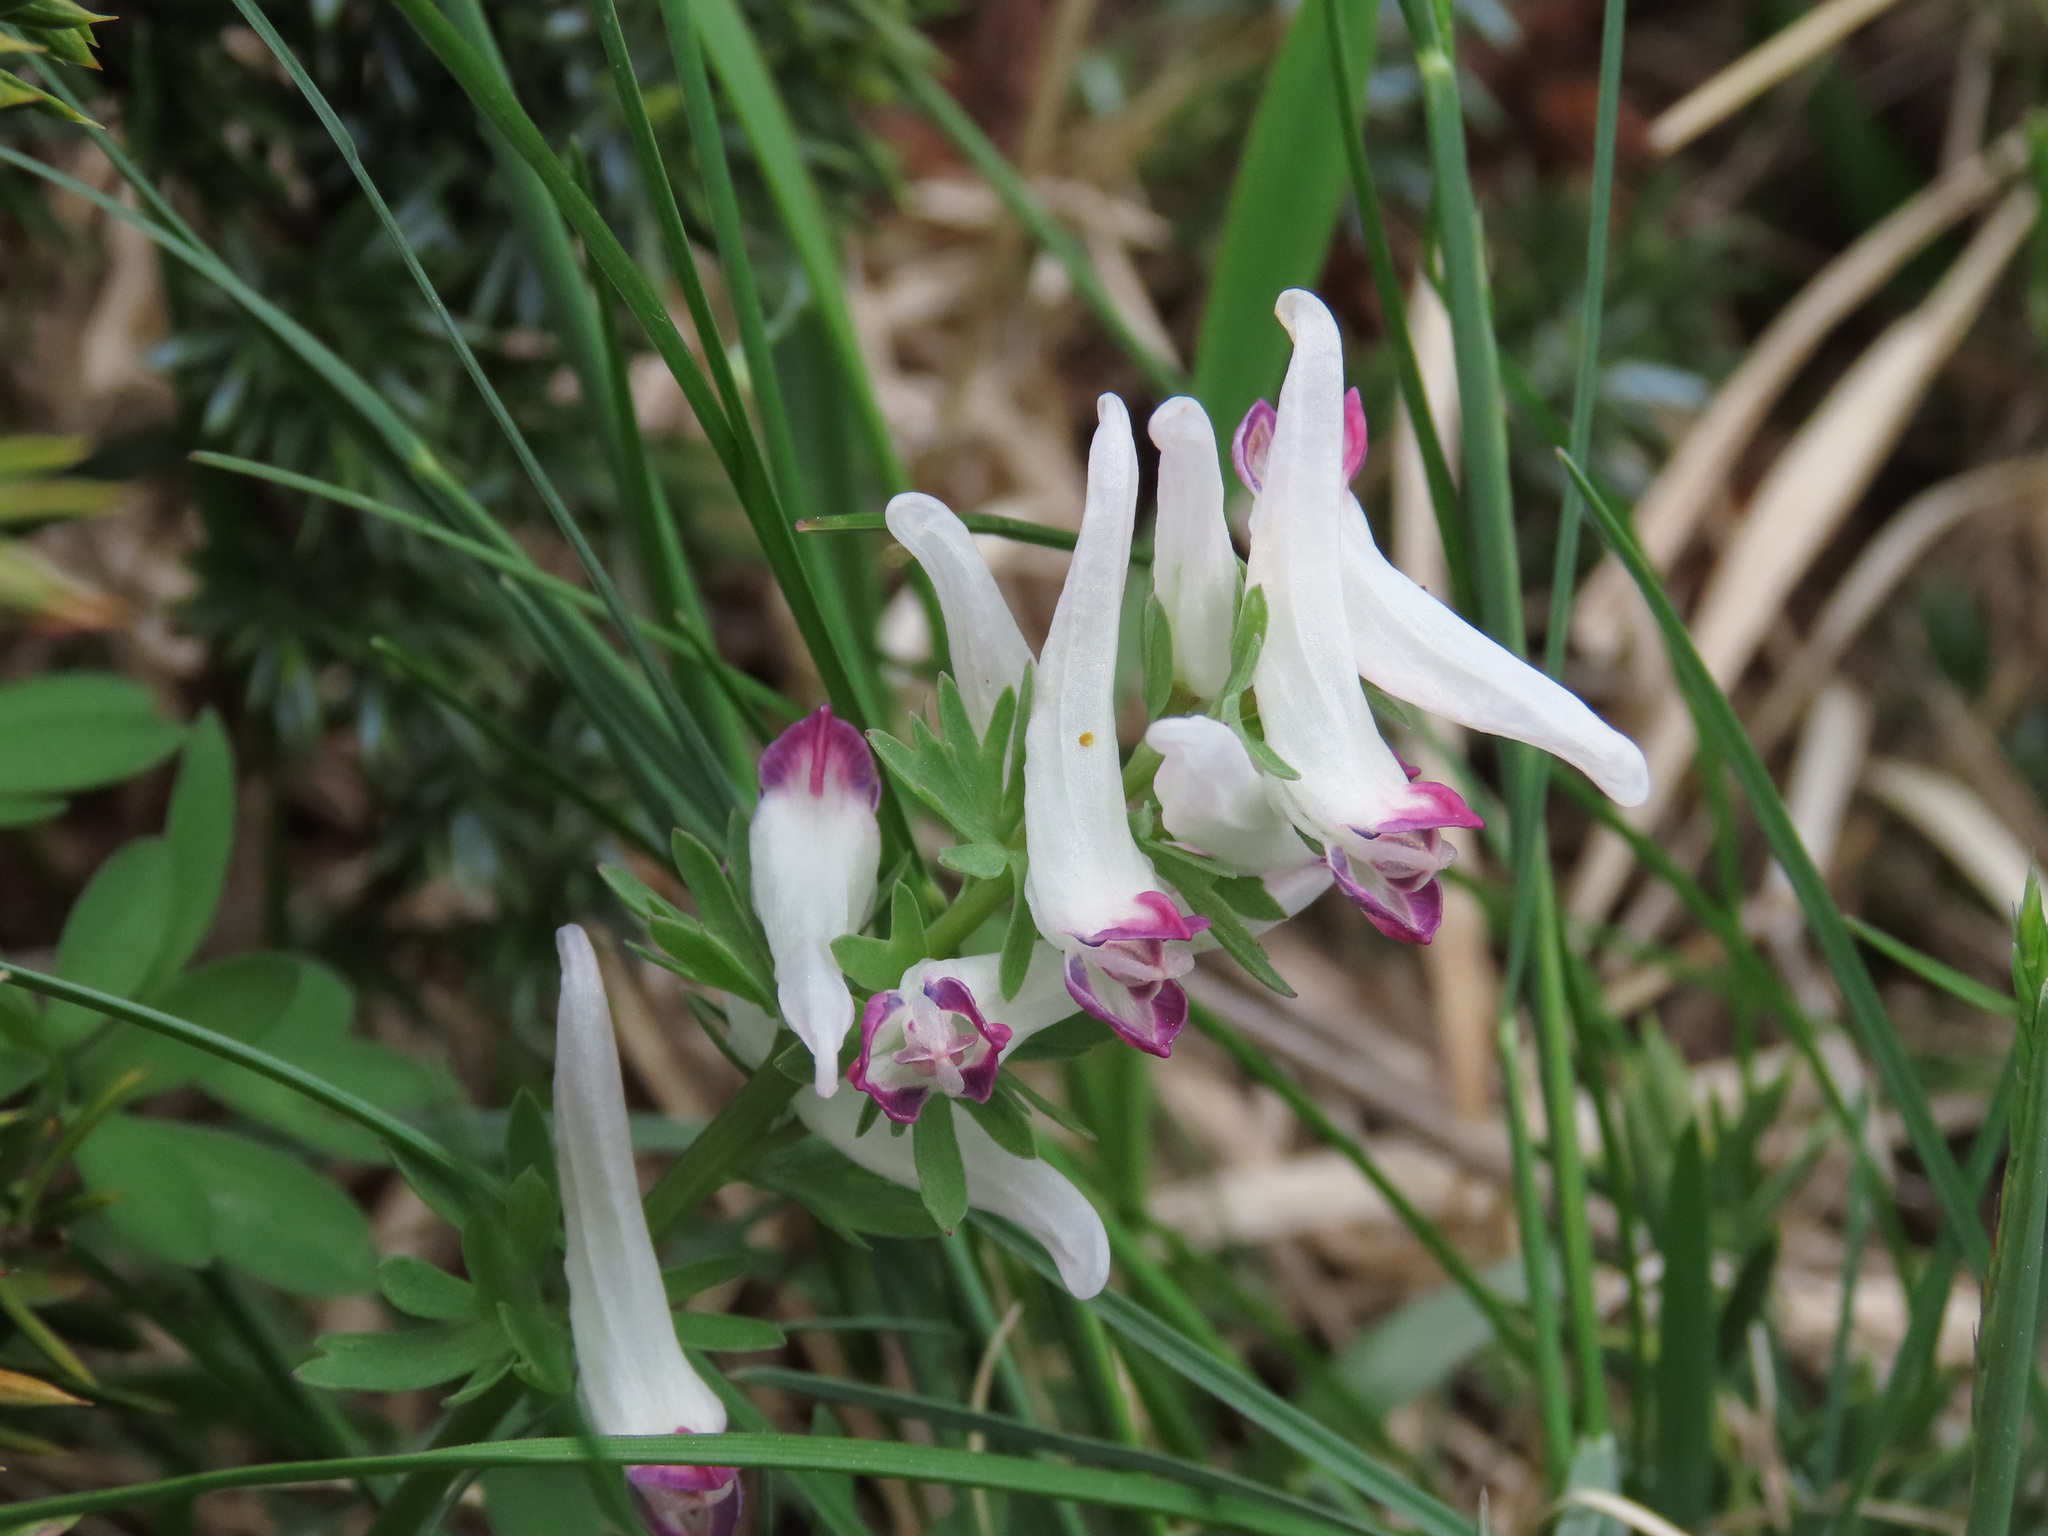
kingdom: Plantae
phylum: Tracheophyta
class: Magnoliopsida
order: Ranunculales
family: Papaveraceae
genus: Corydalis
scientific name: Corydalis densiflora
